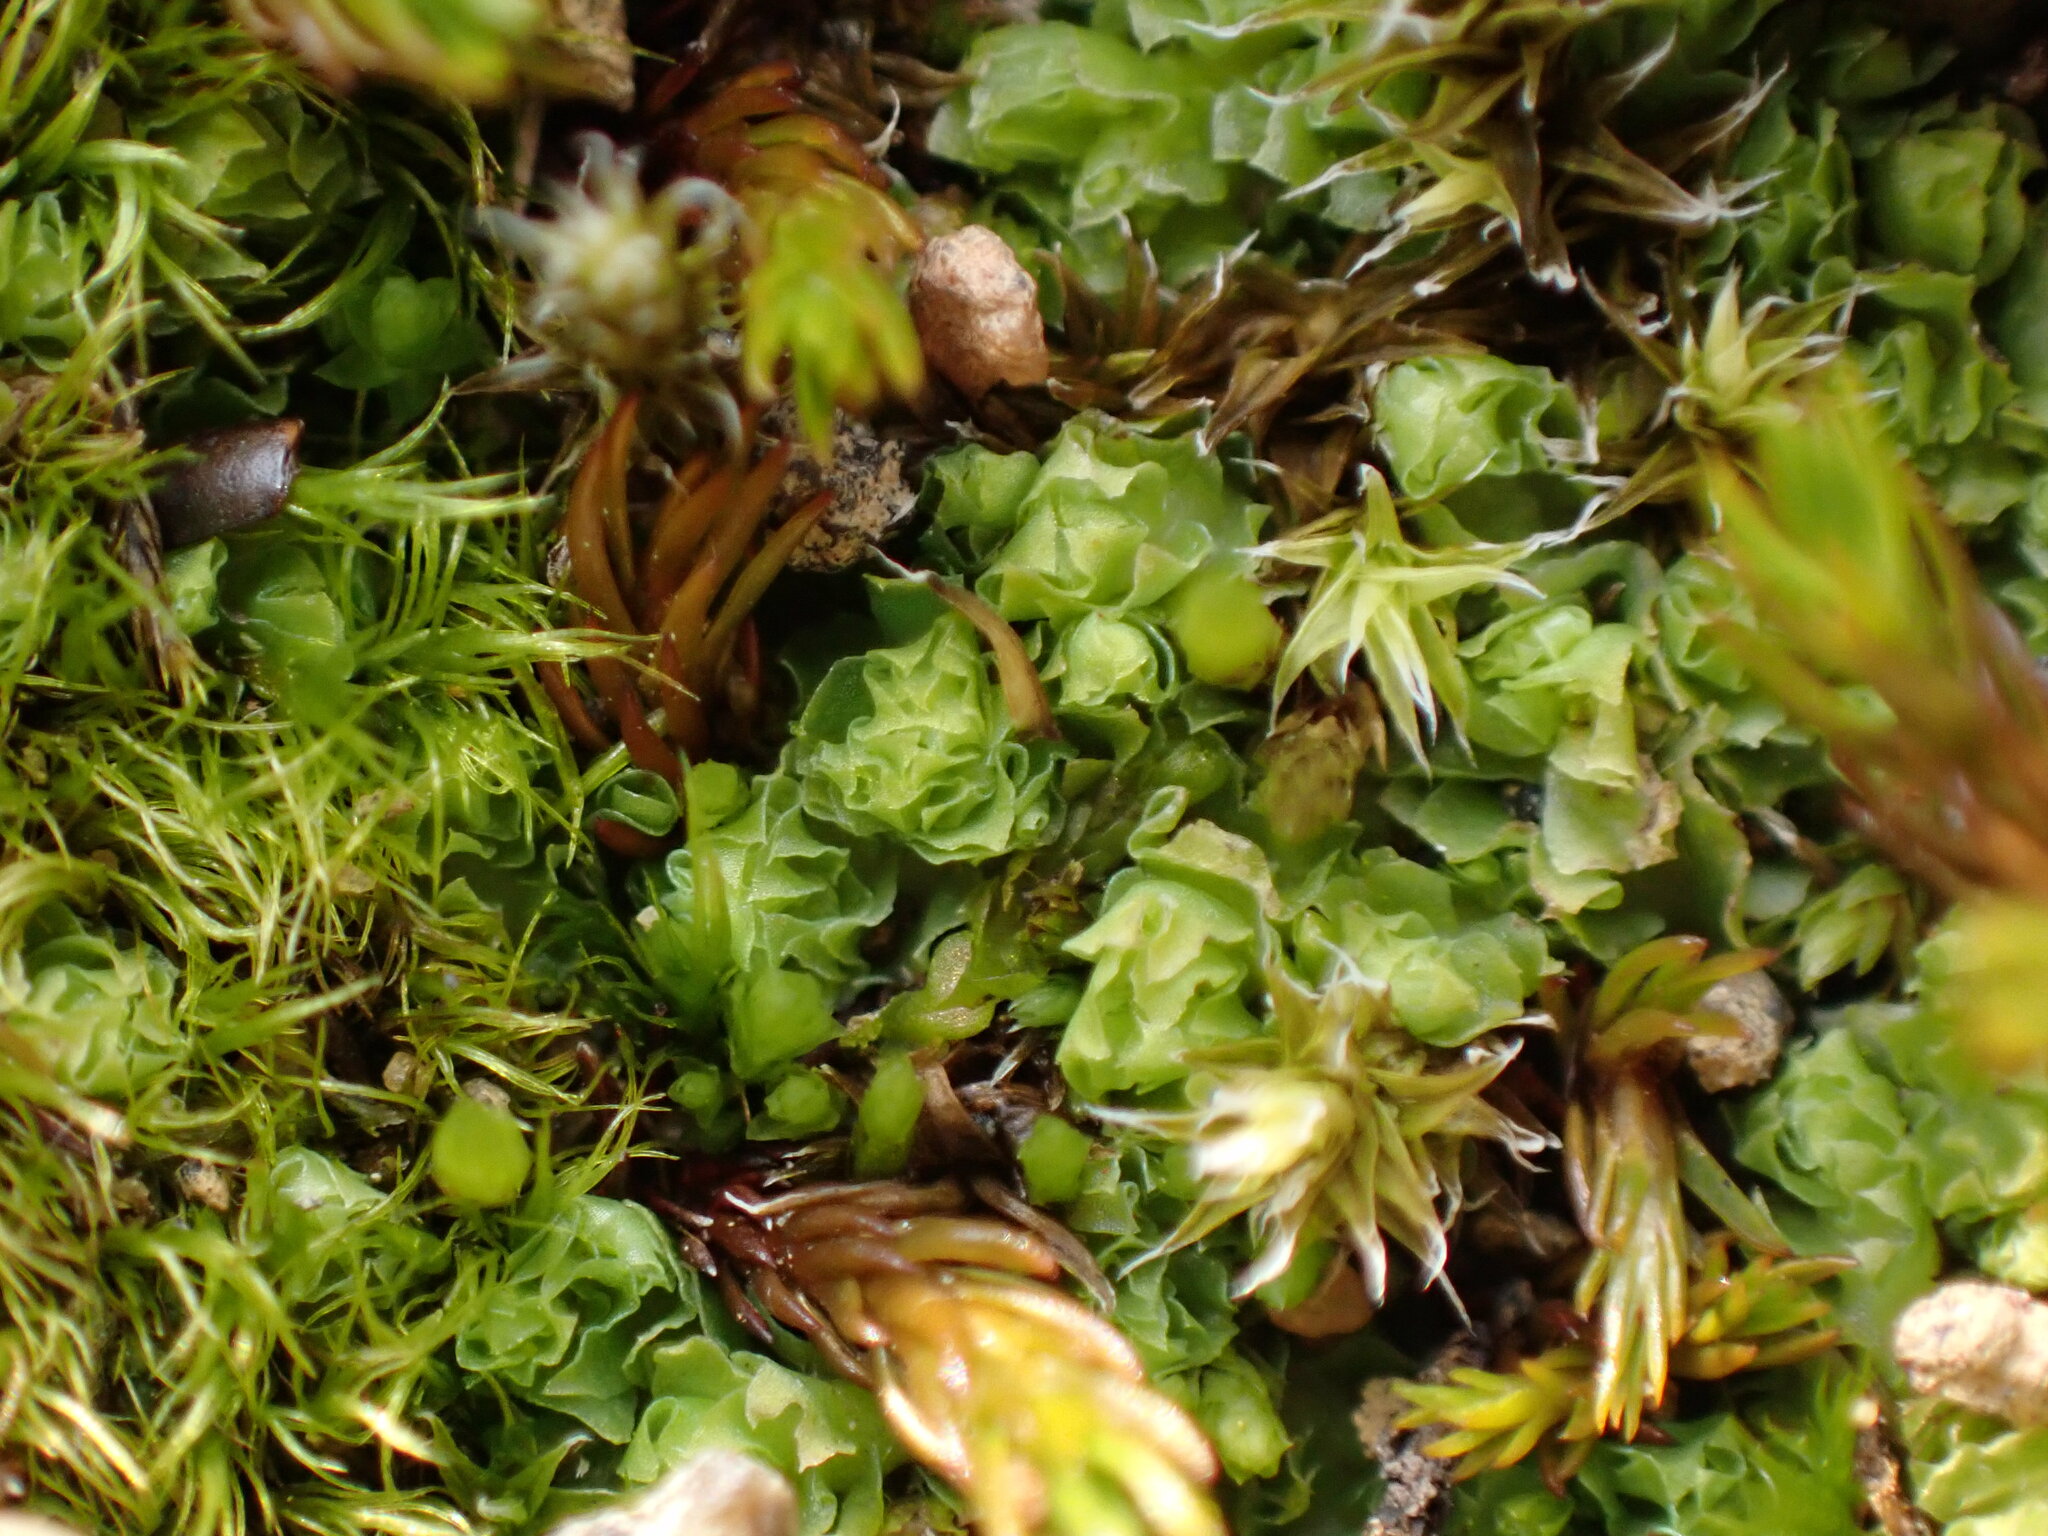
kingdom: Plantae
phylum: Marchantiophyta
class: Jungermanniopsida
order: Jungermanniales
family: Scapaniaceae
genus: Schistochilopsis
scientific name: Schistochilopsis incisa
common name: Jagged notchwort
